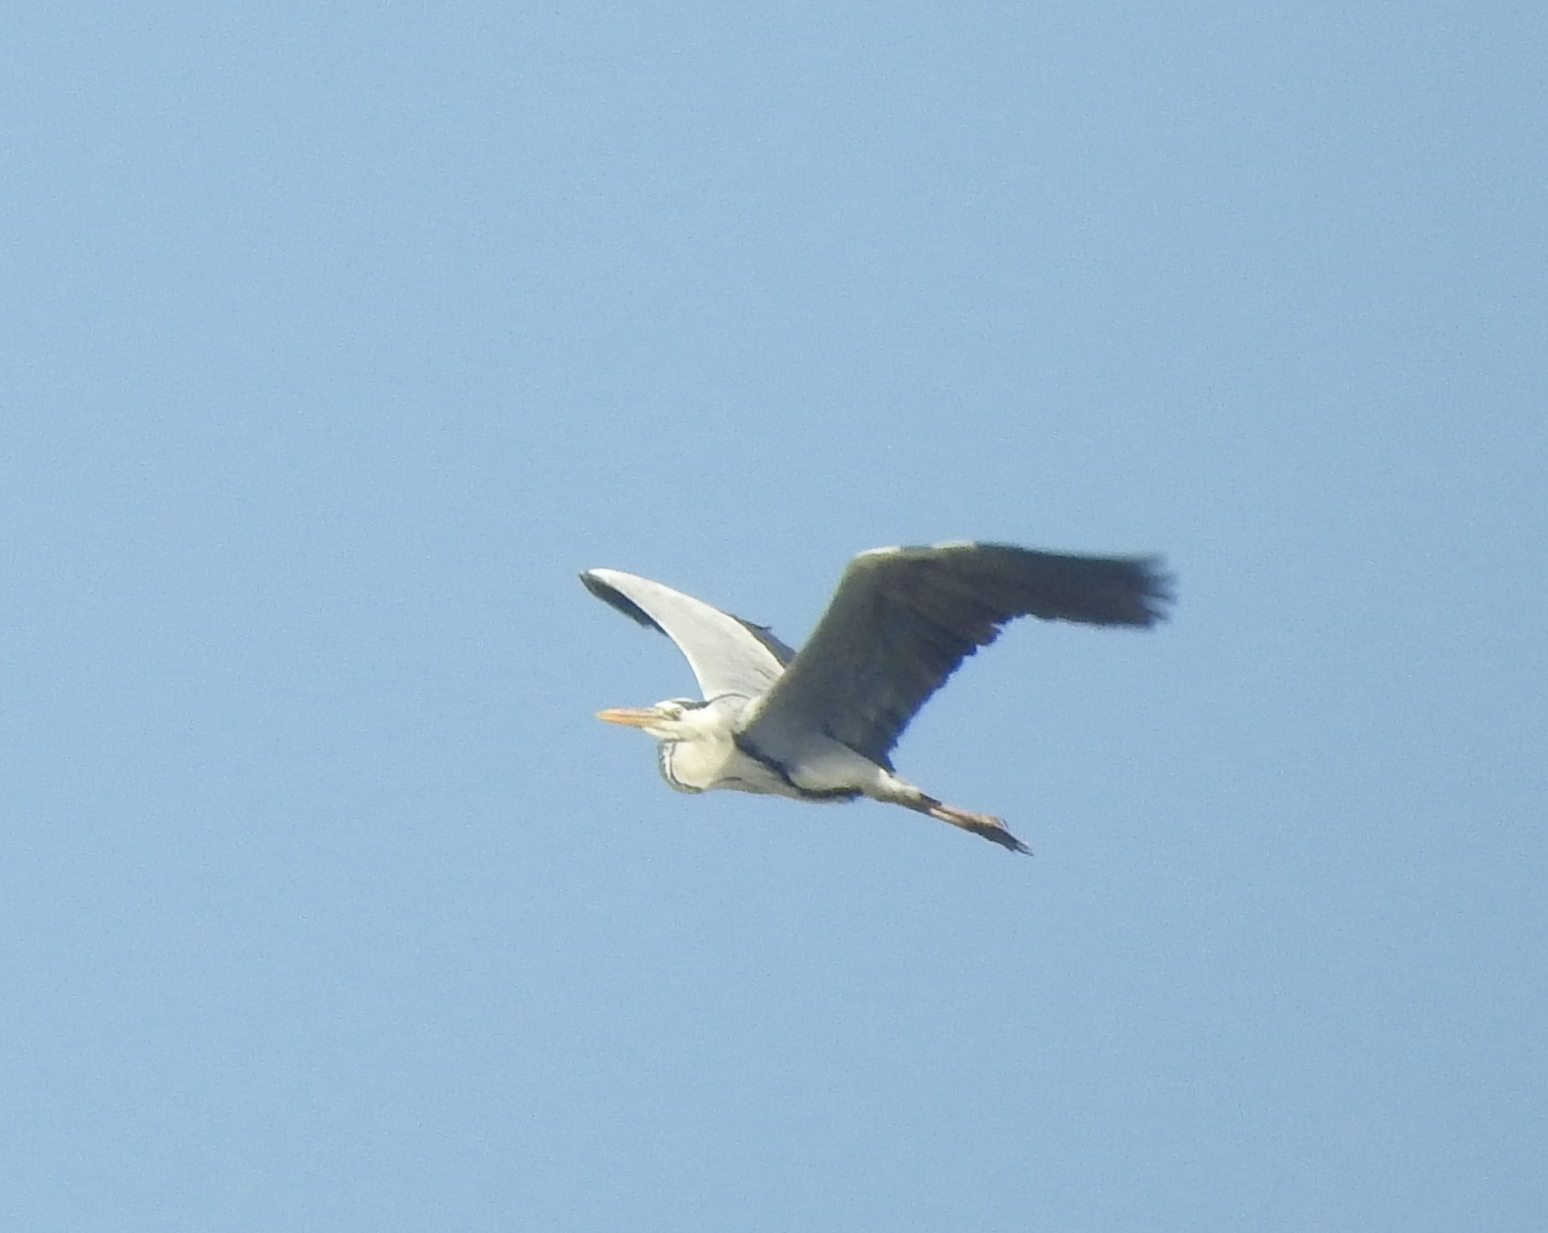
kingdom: Animalia
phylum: Chordata
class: Aves
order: Pelecaniformes
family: Ardeidae
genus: Ardea
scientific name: Ardea cinerea
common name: Grey heron
